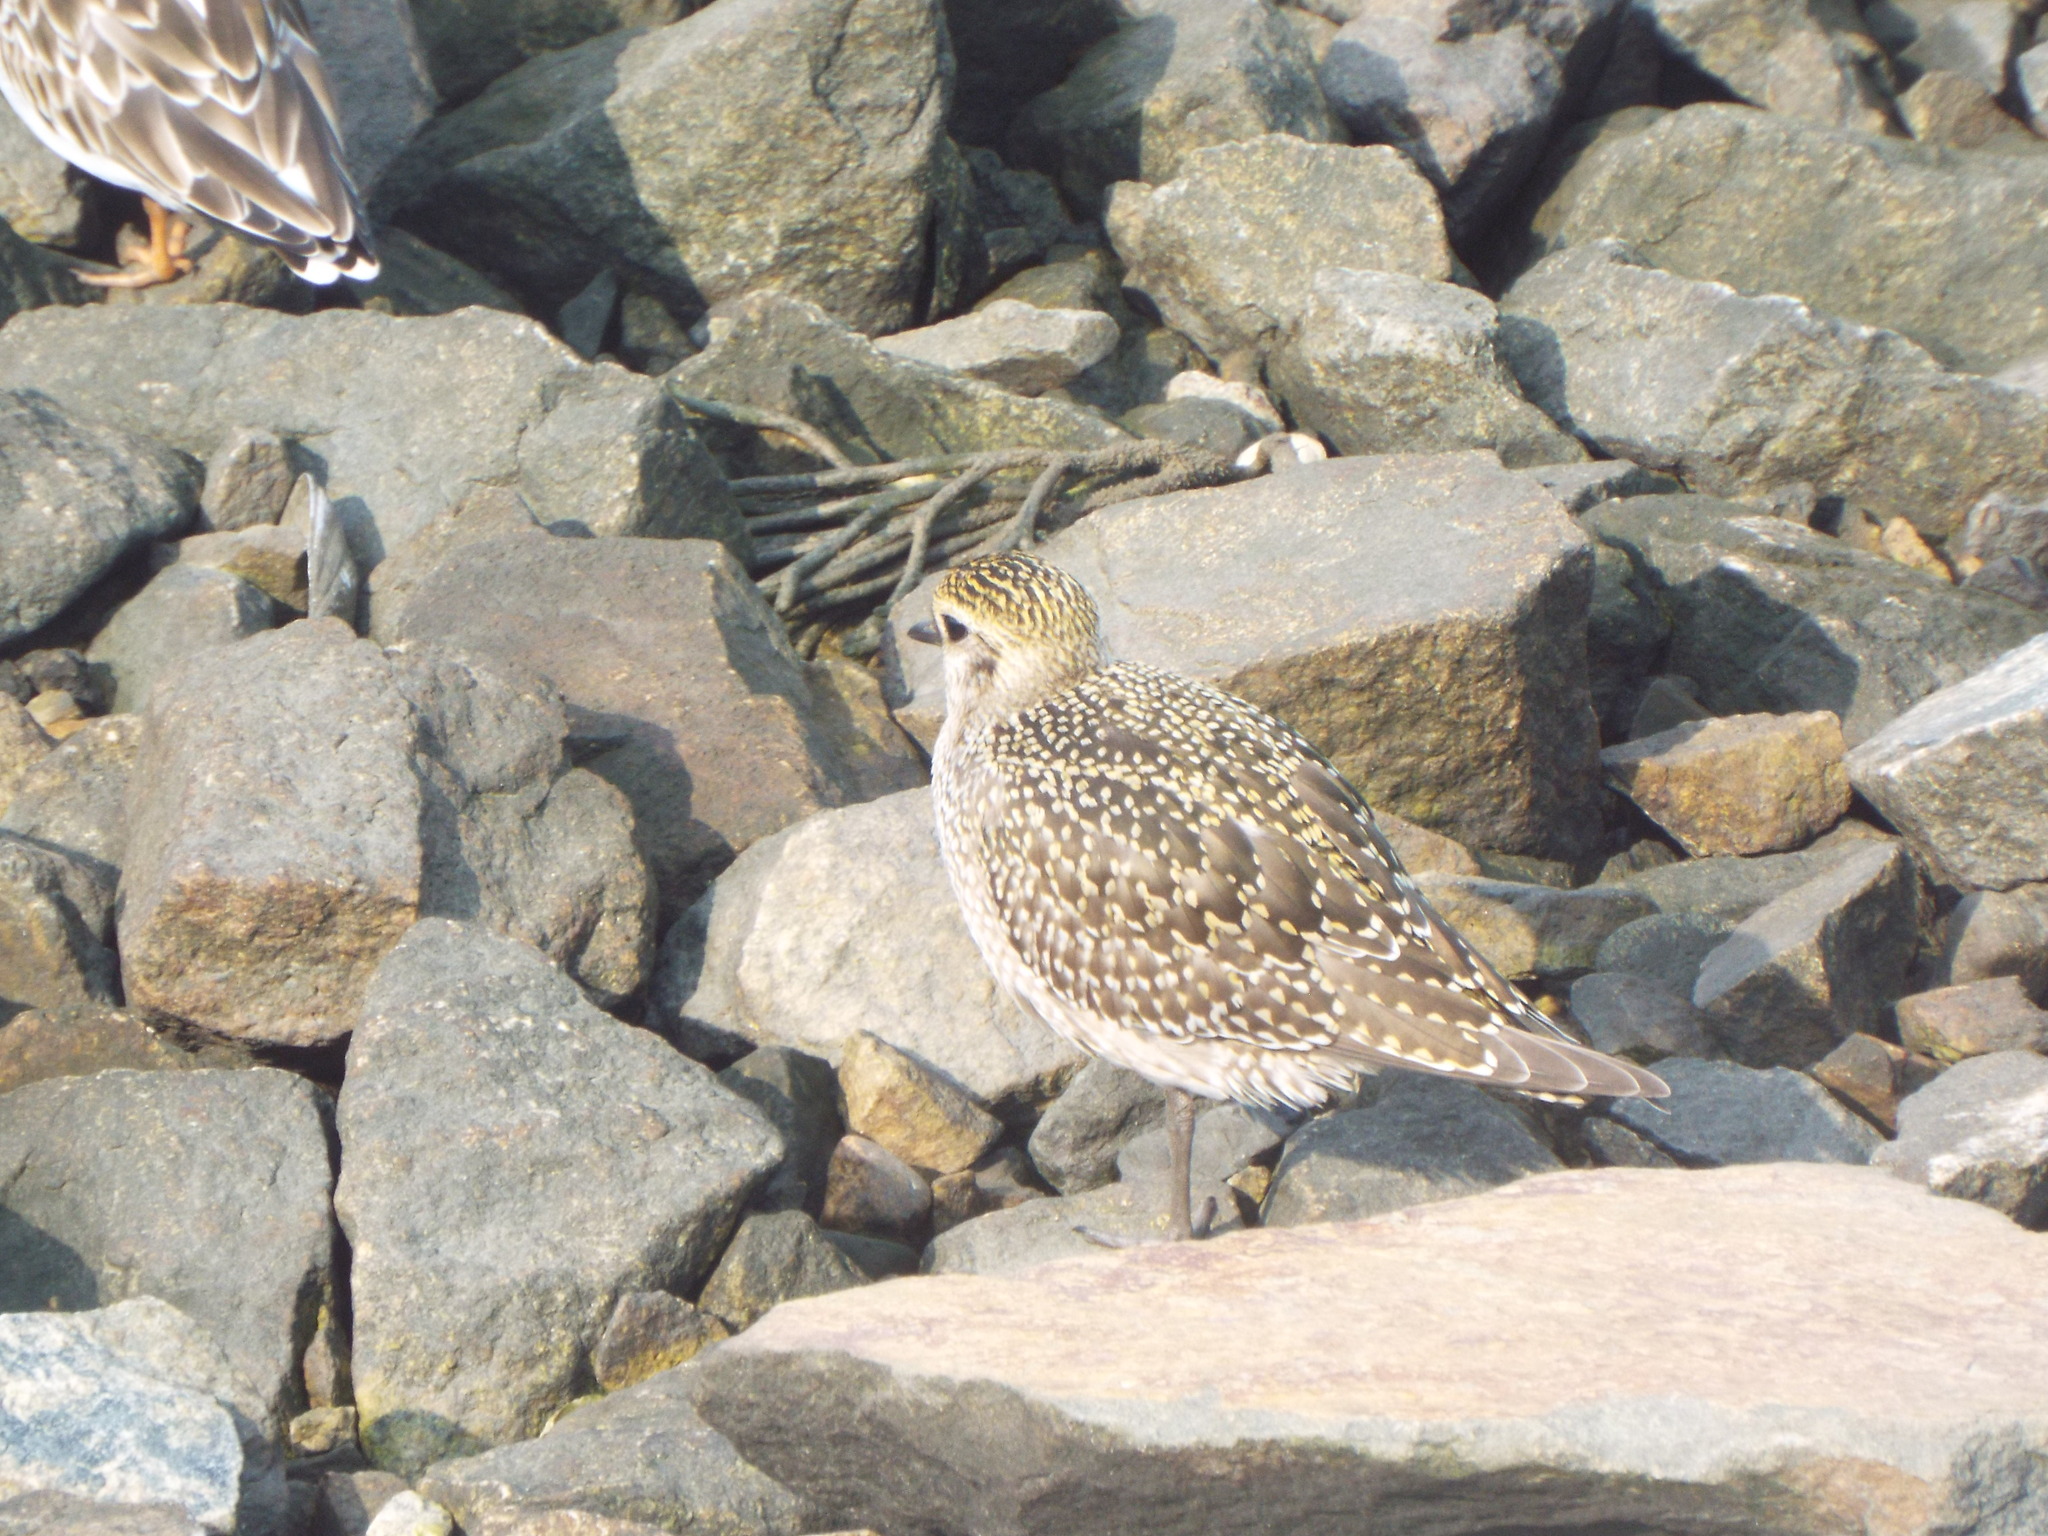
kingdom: Animalia
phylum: Chordata
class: Aves
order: Charadriiformes
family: Charadriidae
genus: Pluvialis
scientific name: Pluvialis dominica
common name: American golden plover
